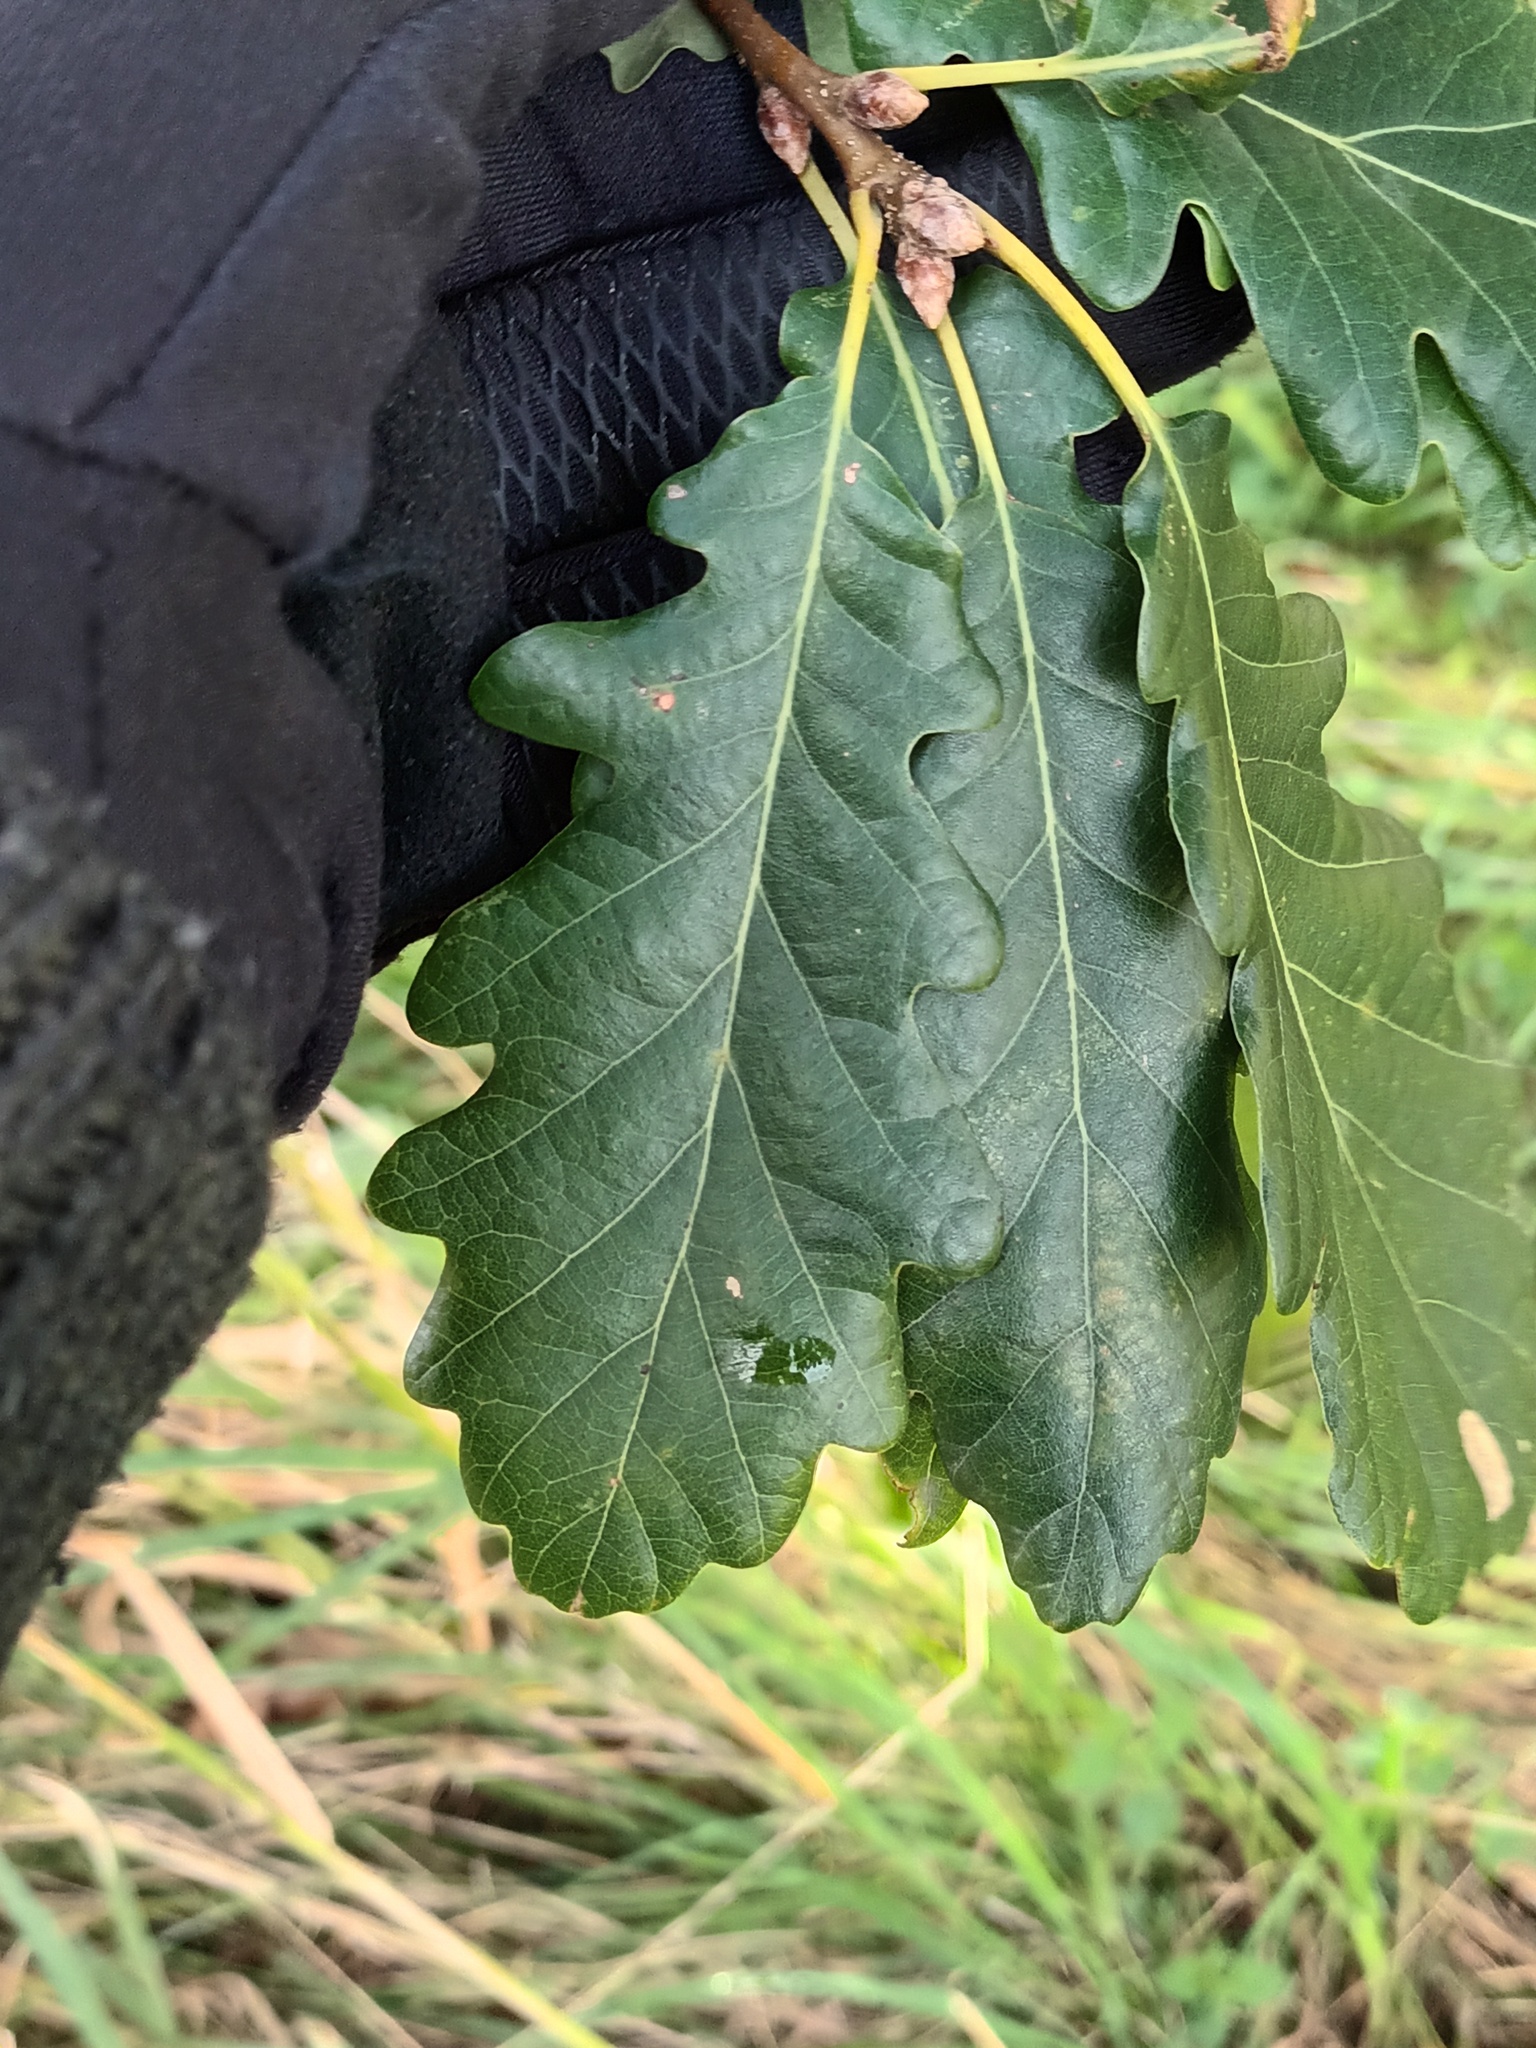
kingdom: Plantae
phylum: Tracheophyta
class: Magnoliopsida
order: Fagales
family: Fagaceae
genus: Quercus
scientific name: Quercus petraea
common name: Sessile oak
